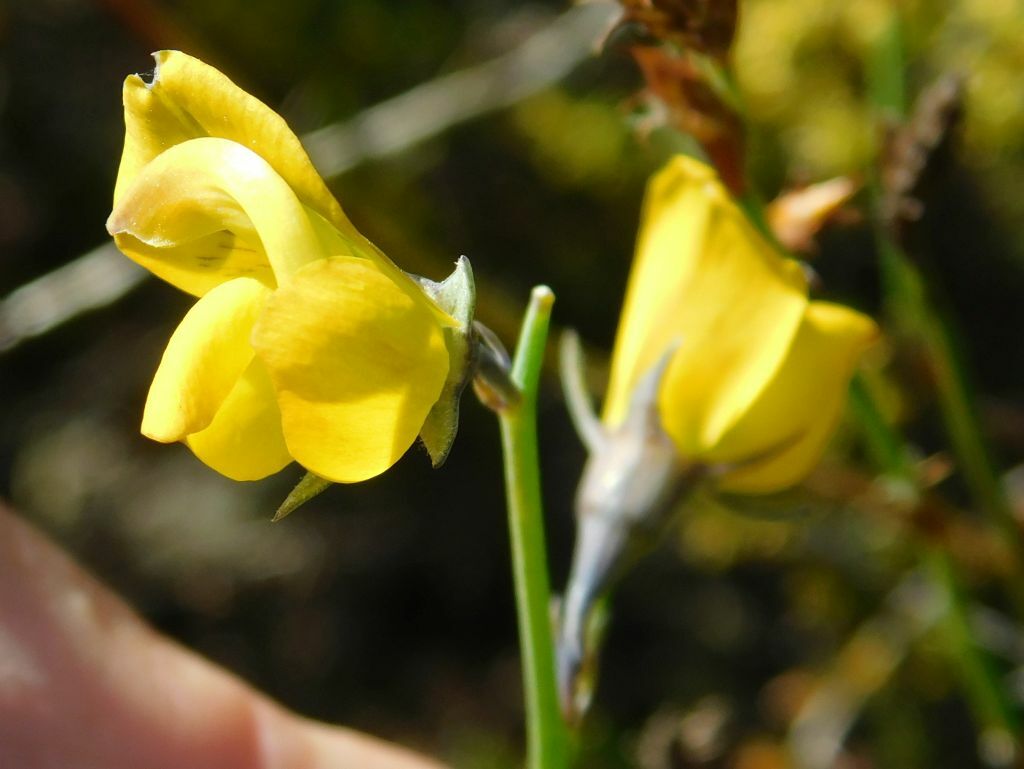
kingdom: Plantae
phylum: Tracheophyta
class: Magnoliopsida
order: Fabales
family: Fabaceae
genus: Lebeckia
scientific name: Lebeckia pauciflora
